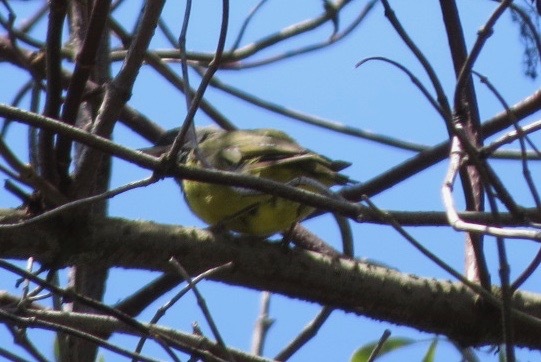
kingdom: Animalia
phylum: Chordata
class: Aves
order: Passeriformes
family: Parulidae
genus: Geothlypis
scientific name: Geothlypis tolmiei
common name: Macgillivray's warbler
